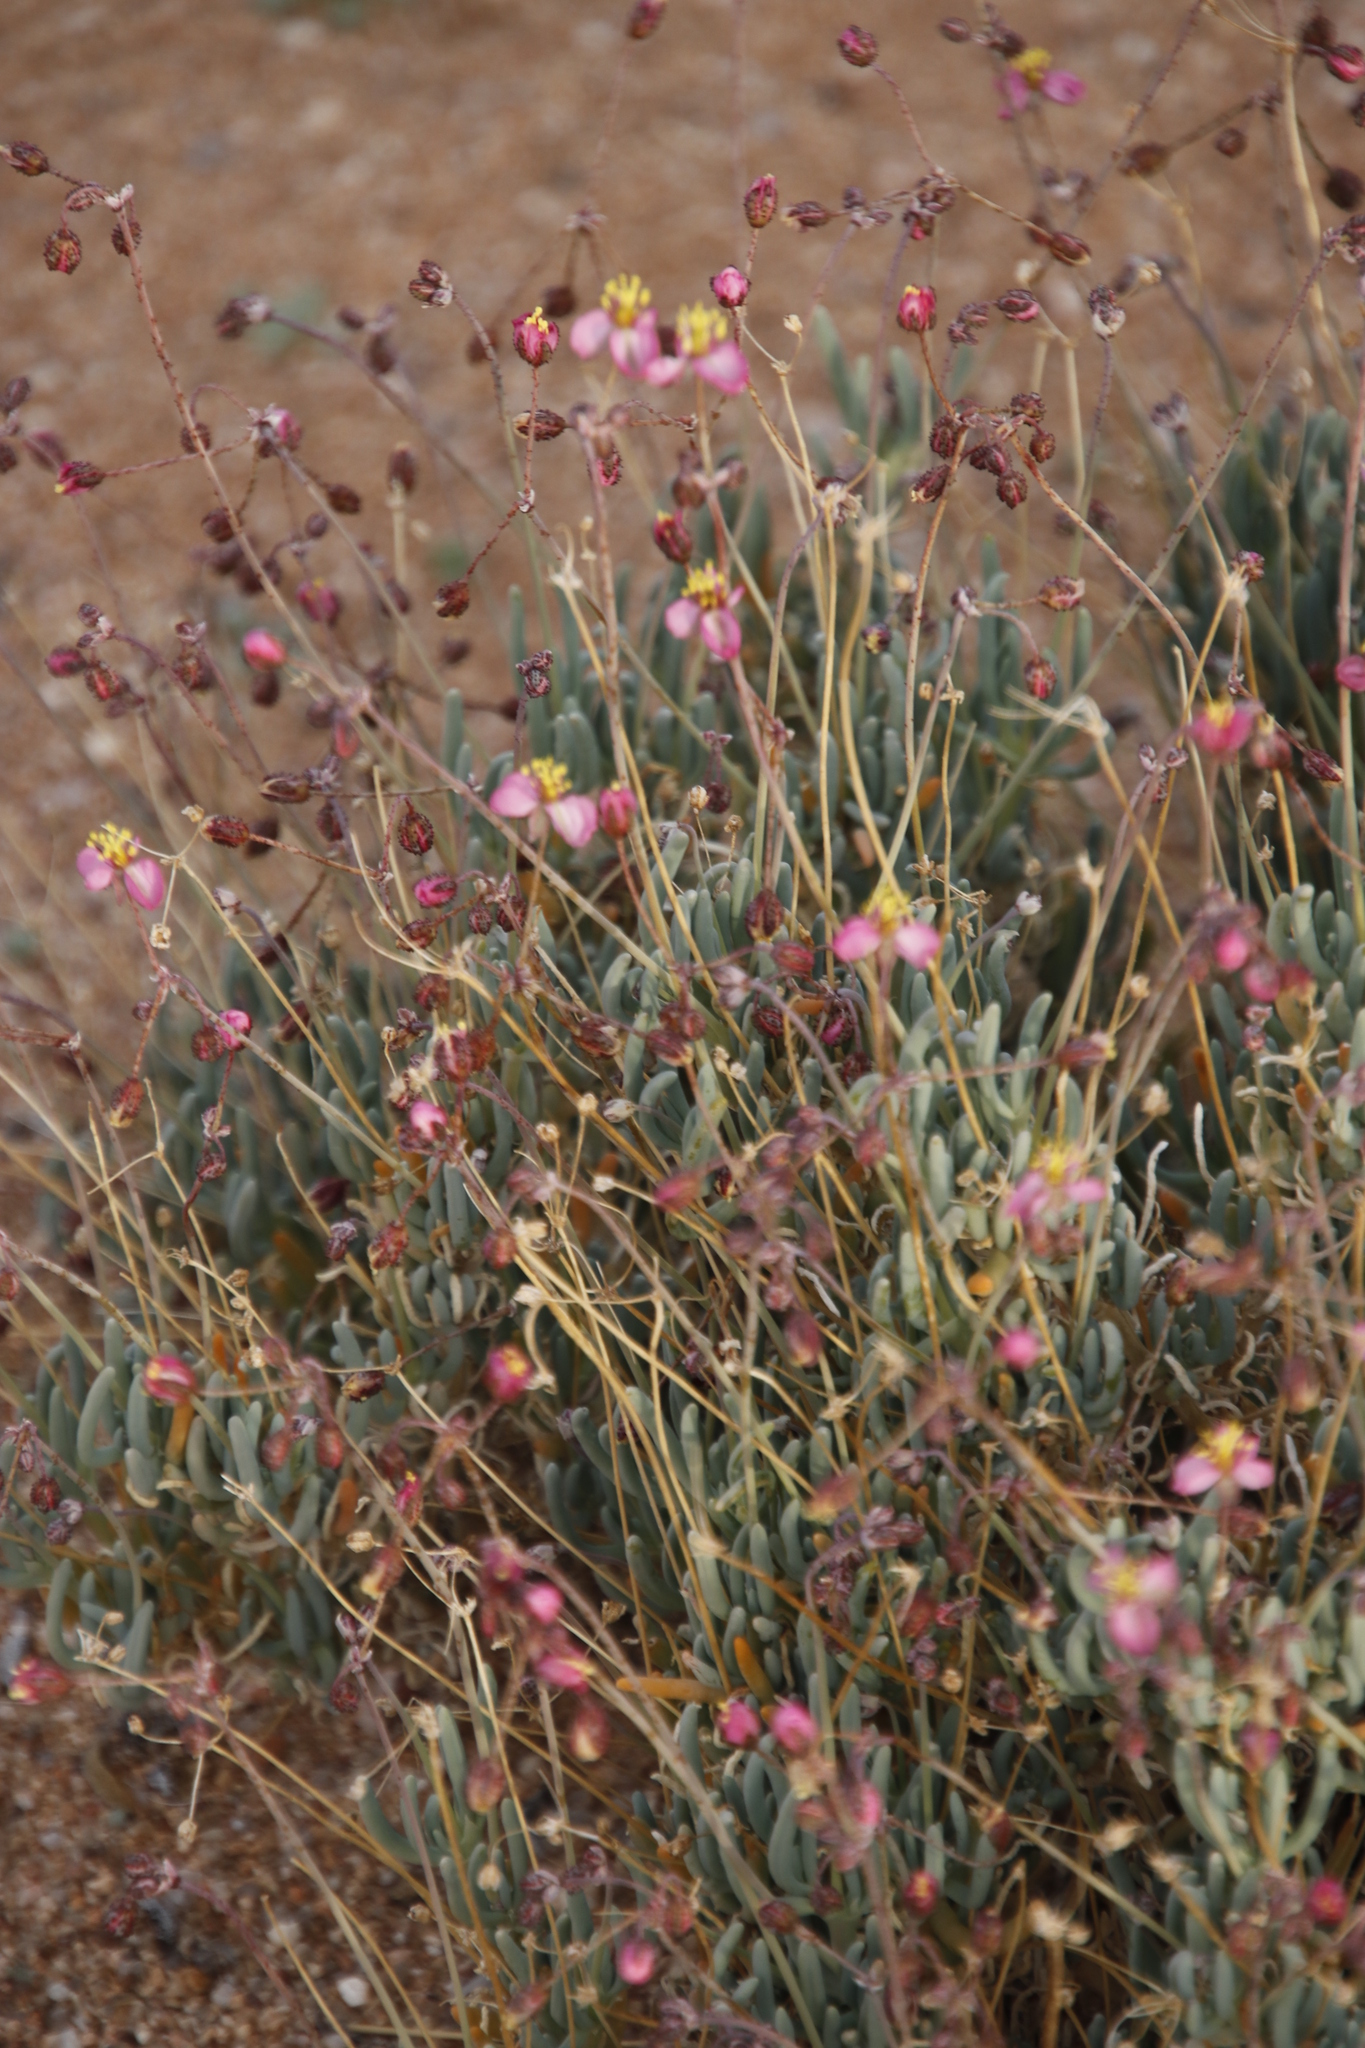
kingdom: Plantae
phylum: Tracheophyta
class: Magnoliopsida
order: Caryophyllales
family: Kewaceae
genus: Kewa
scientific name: Kewa salsoloides
